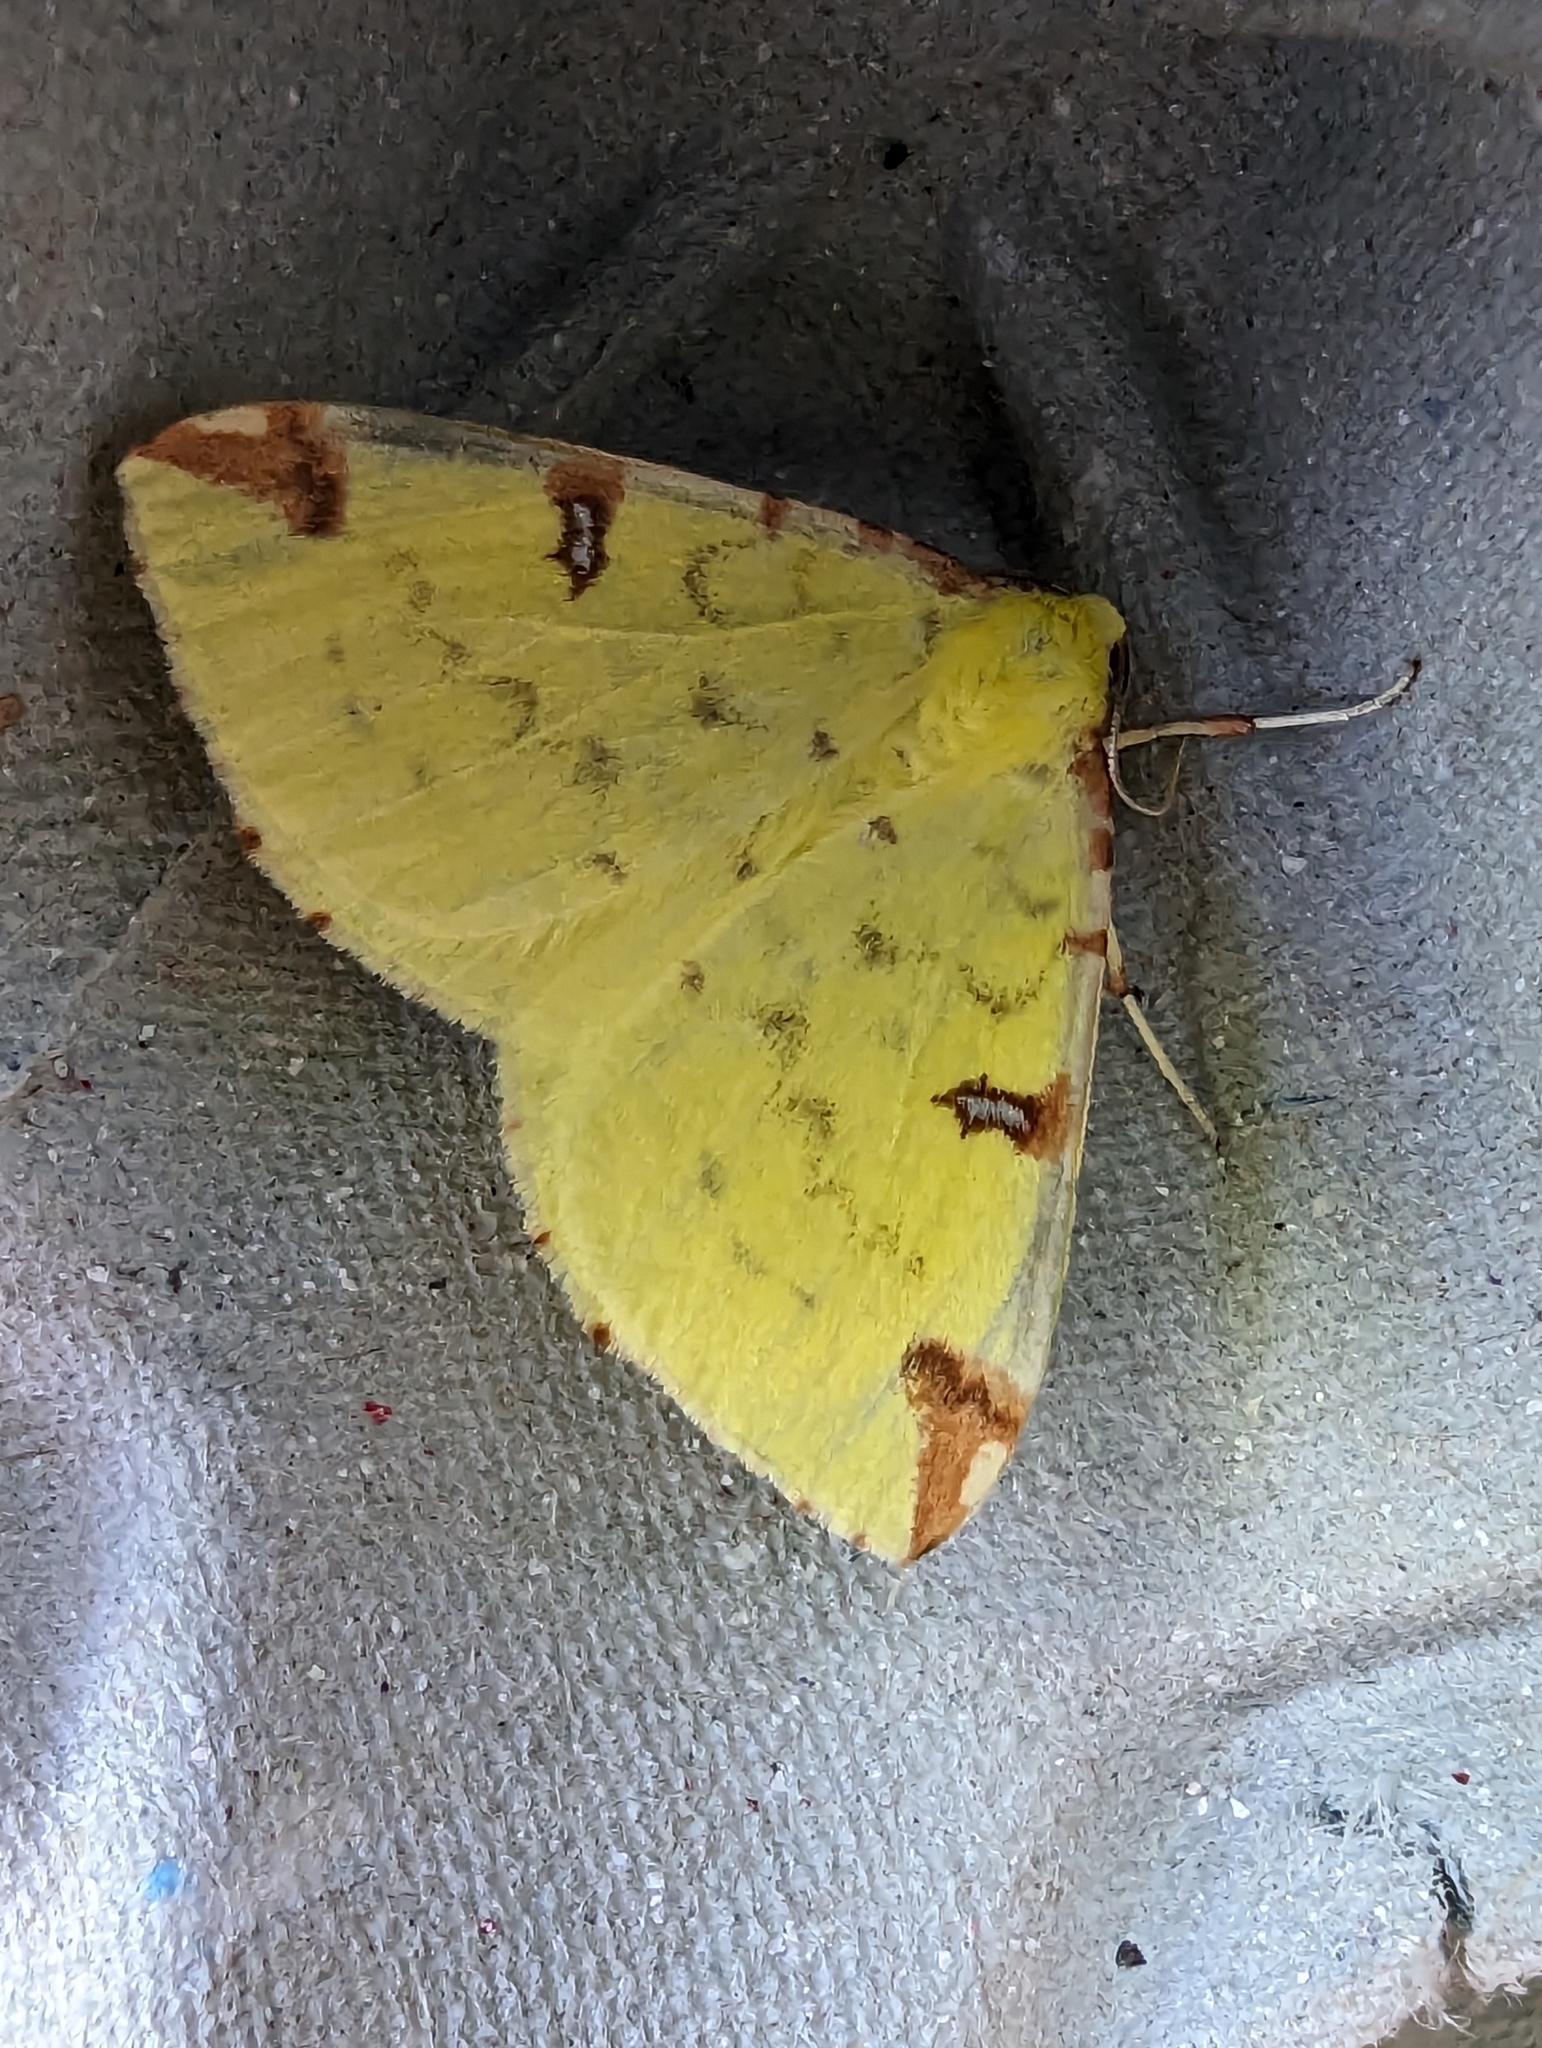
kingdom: Animalia
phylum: Arthropoda
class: Insecta
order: Lepidoptera
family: Geometridae
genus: Opisthograptis
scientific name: Opisthograptis luteolata
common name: Brimstone moth
